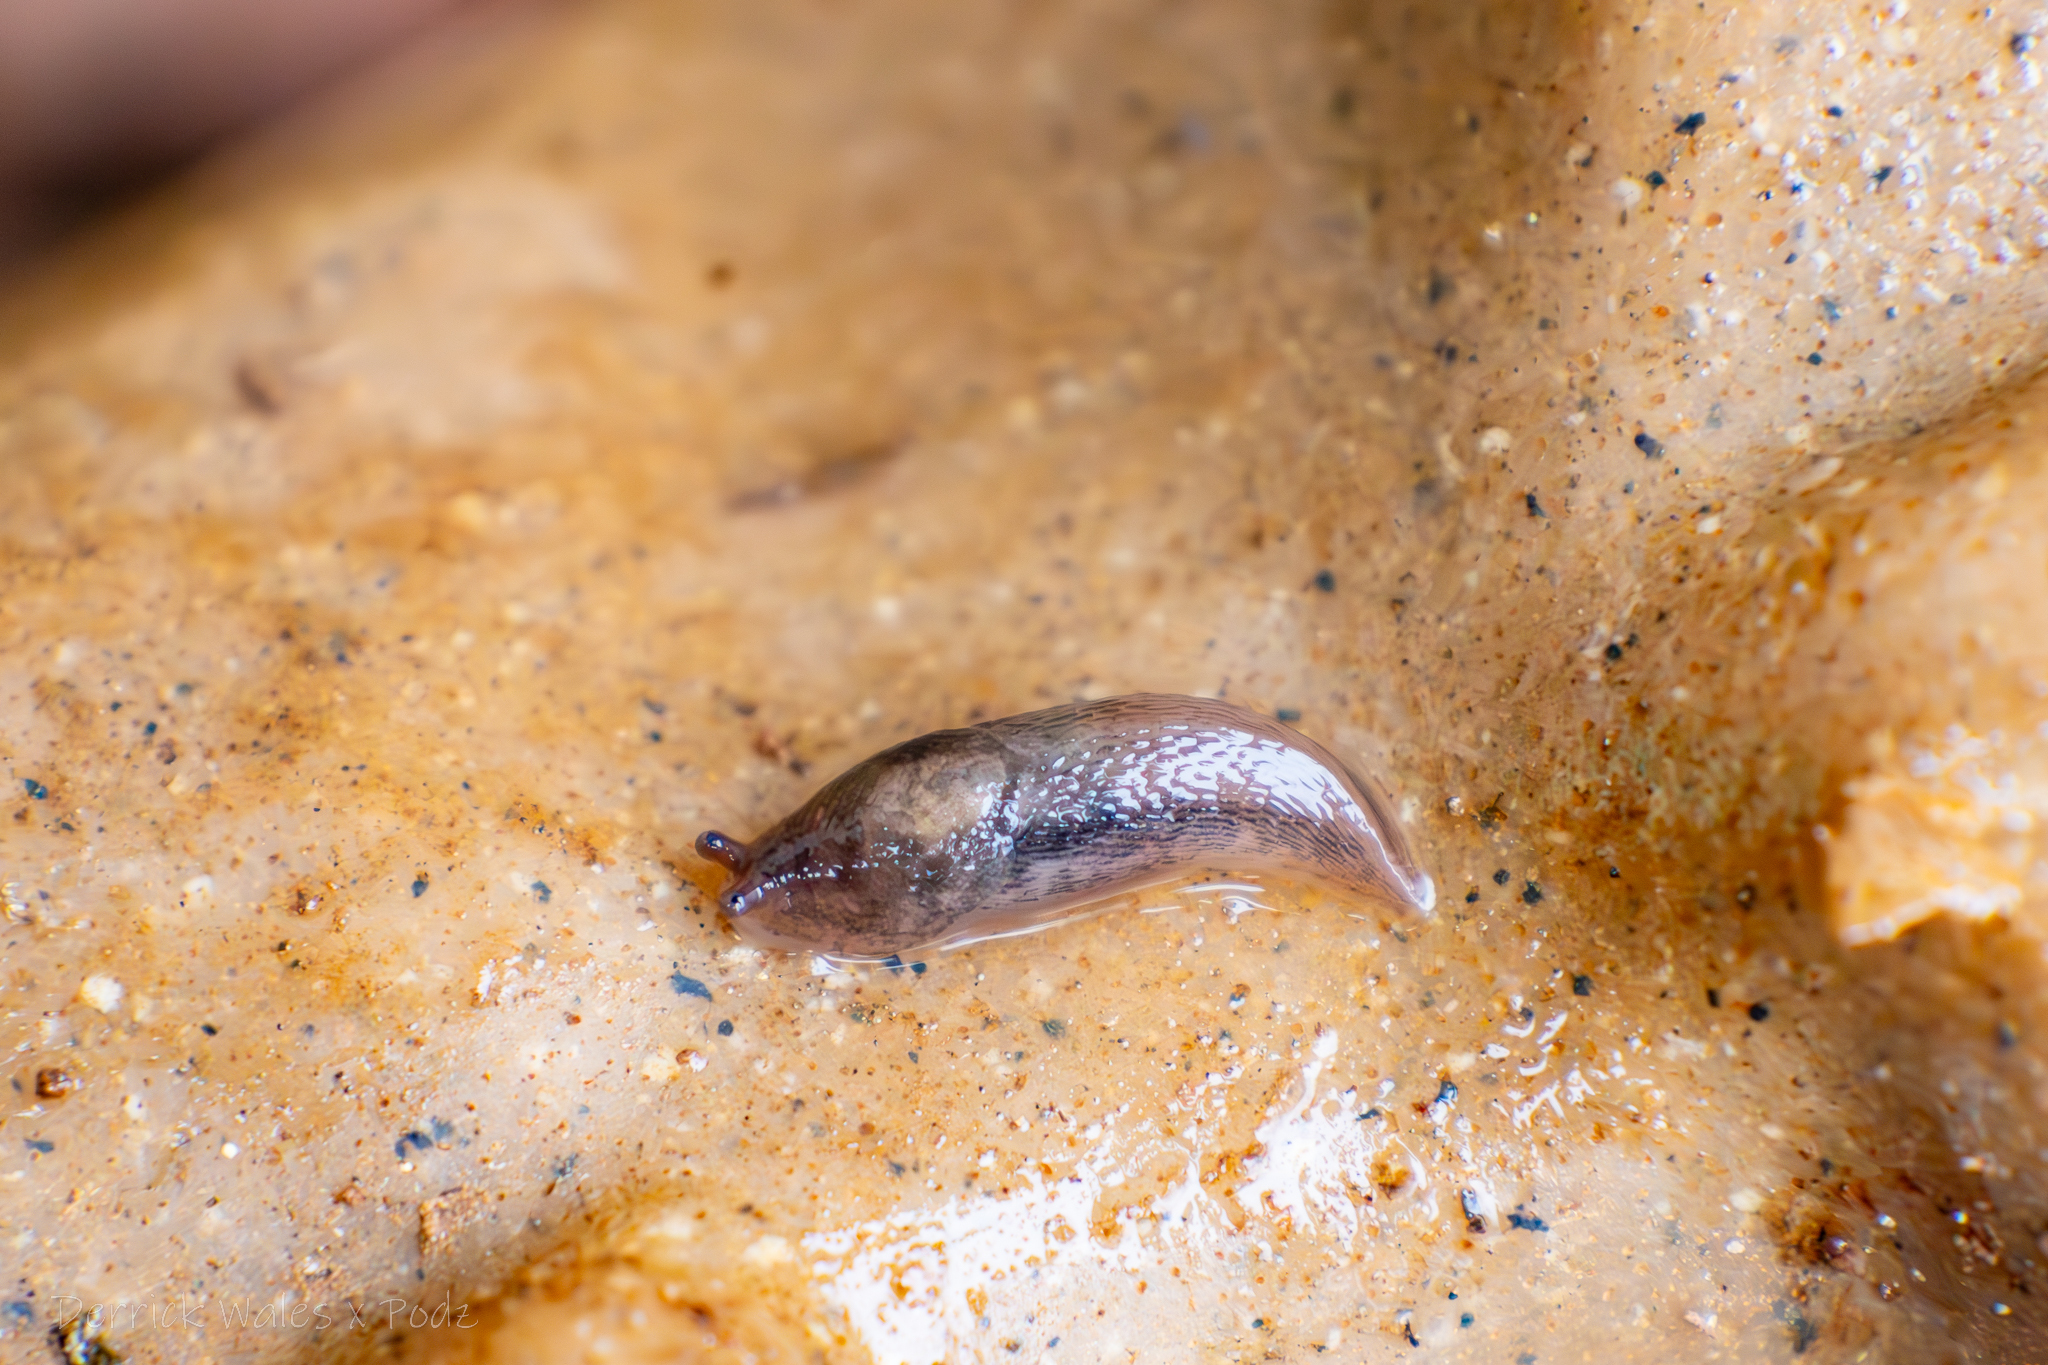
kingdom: Animalia
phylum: Mollusca
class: Gastropoda
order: Stylommatophora
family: Limacidae
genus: Limax
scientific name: Limax maximus
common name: Great grey slug
